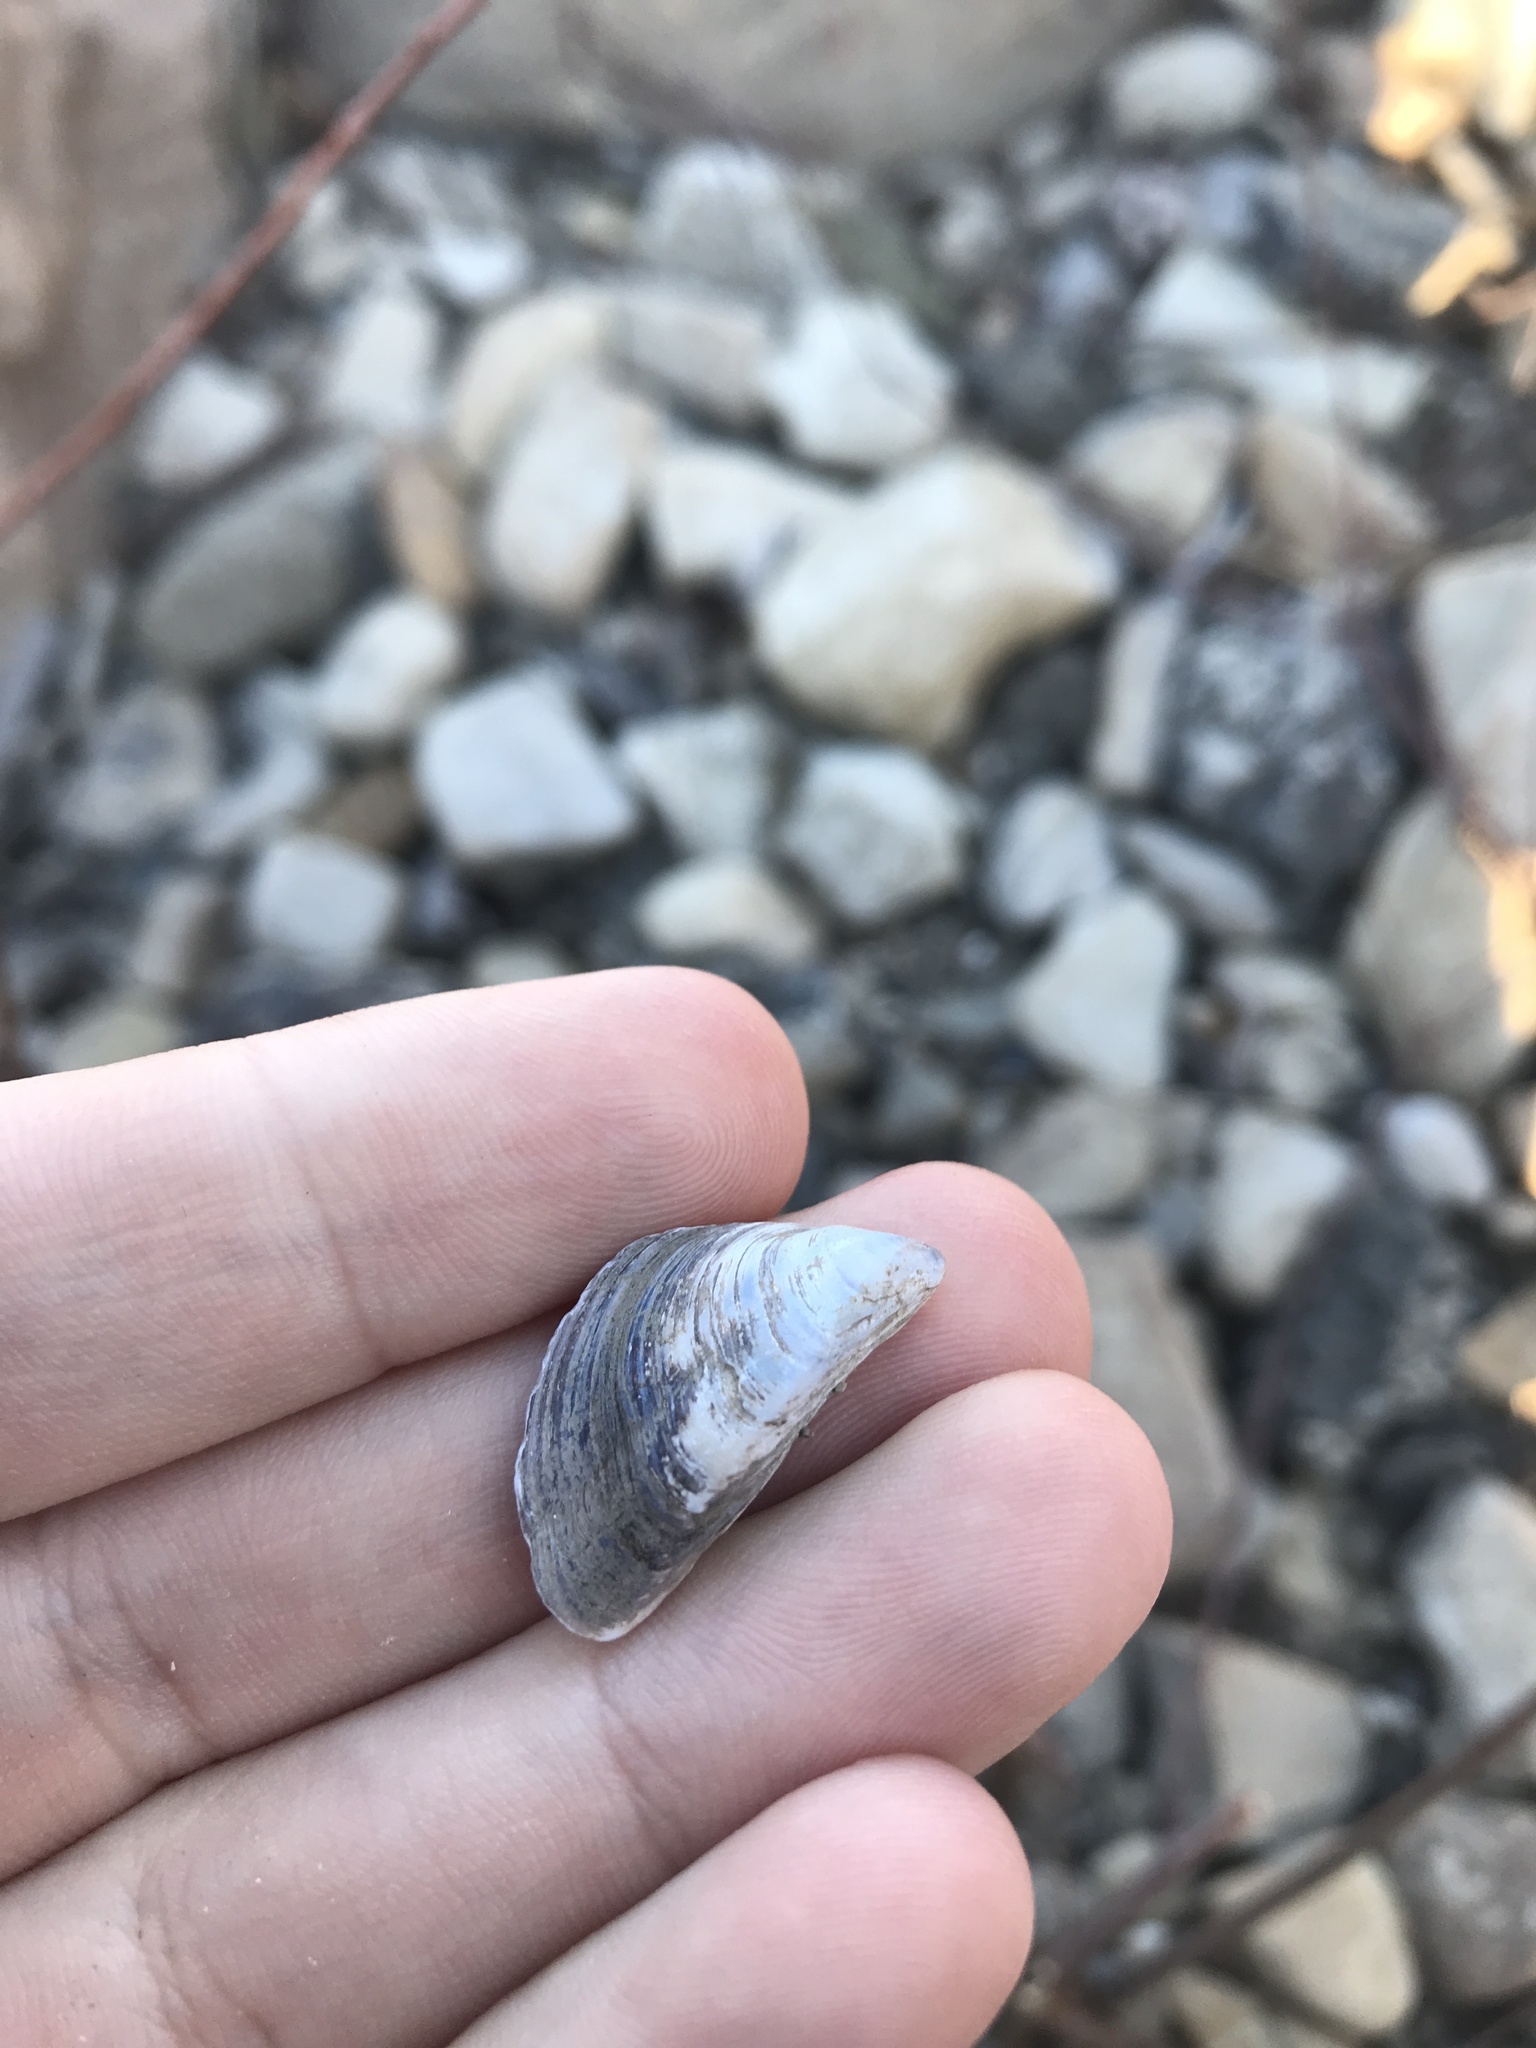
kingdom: Animalia
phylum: Mollusca
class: Bivalvia
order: Myida
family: Dreissenidae
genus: Dreissena
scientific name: Dreissena polymorpha
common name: Zebra mussel
